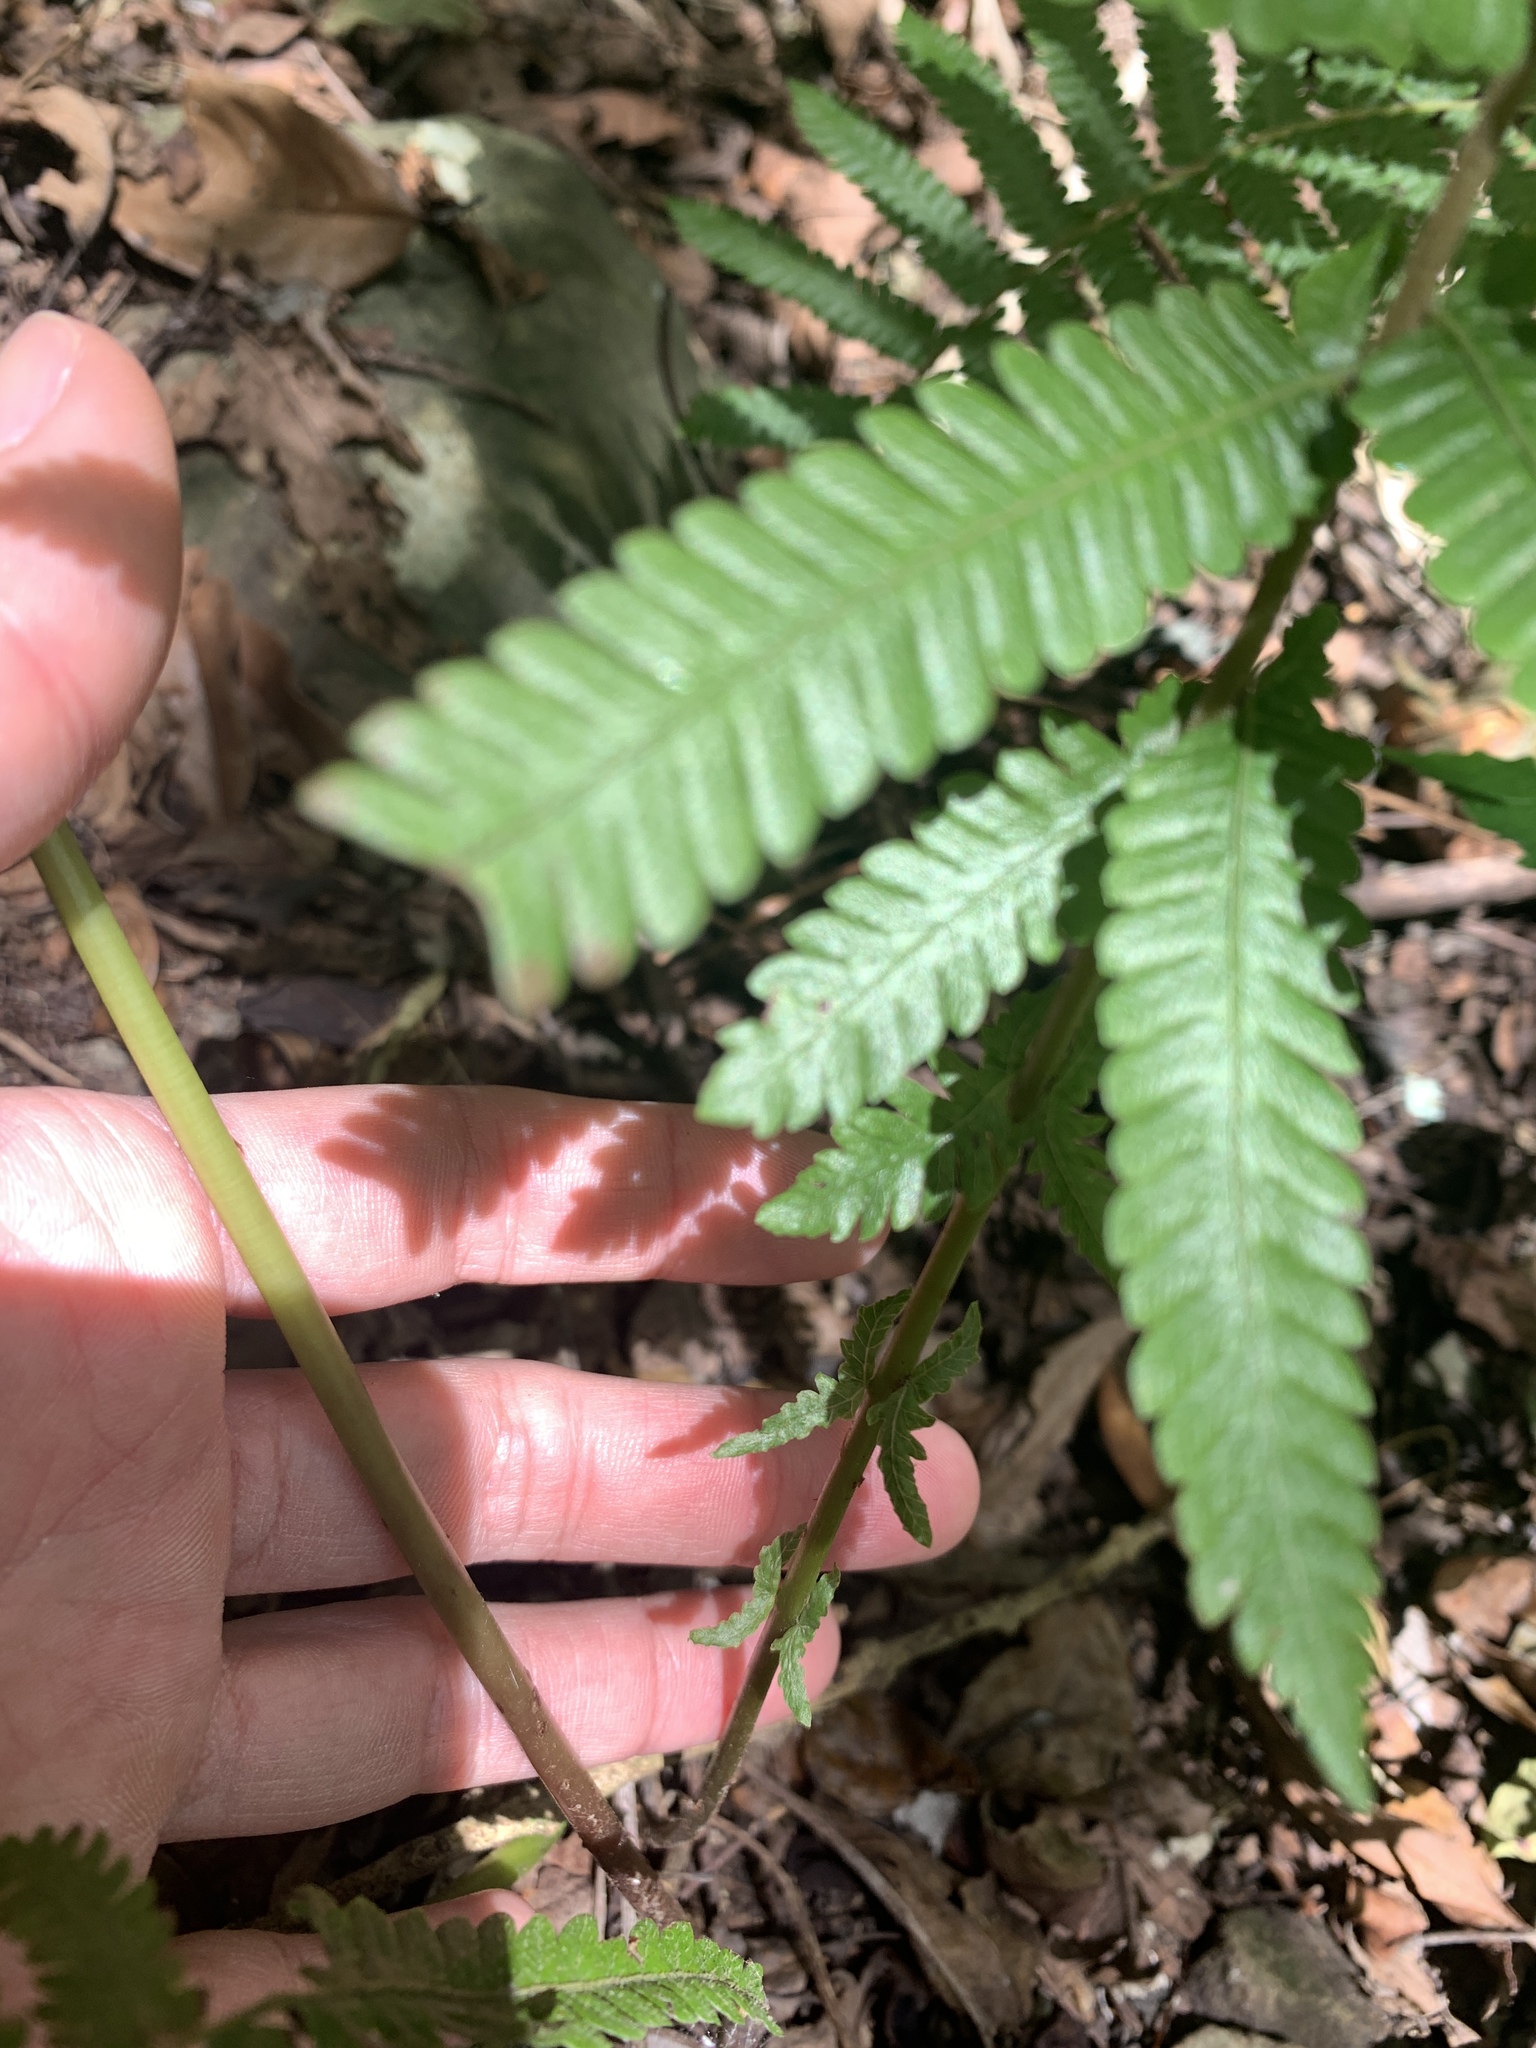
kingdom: Plantae
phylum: Tracheophyta
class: Polypodiopsida
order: Polypodiales
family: Thelypteridaceae
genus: Pseudocyclosorus
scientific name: Pseudocyclosorus esquirolii
